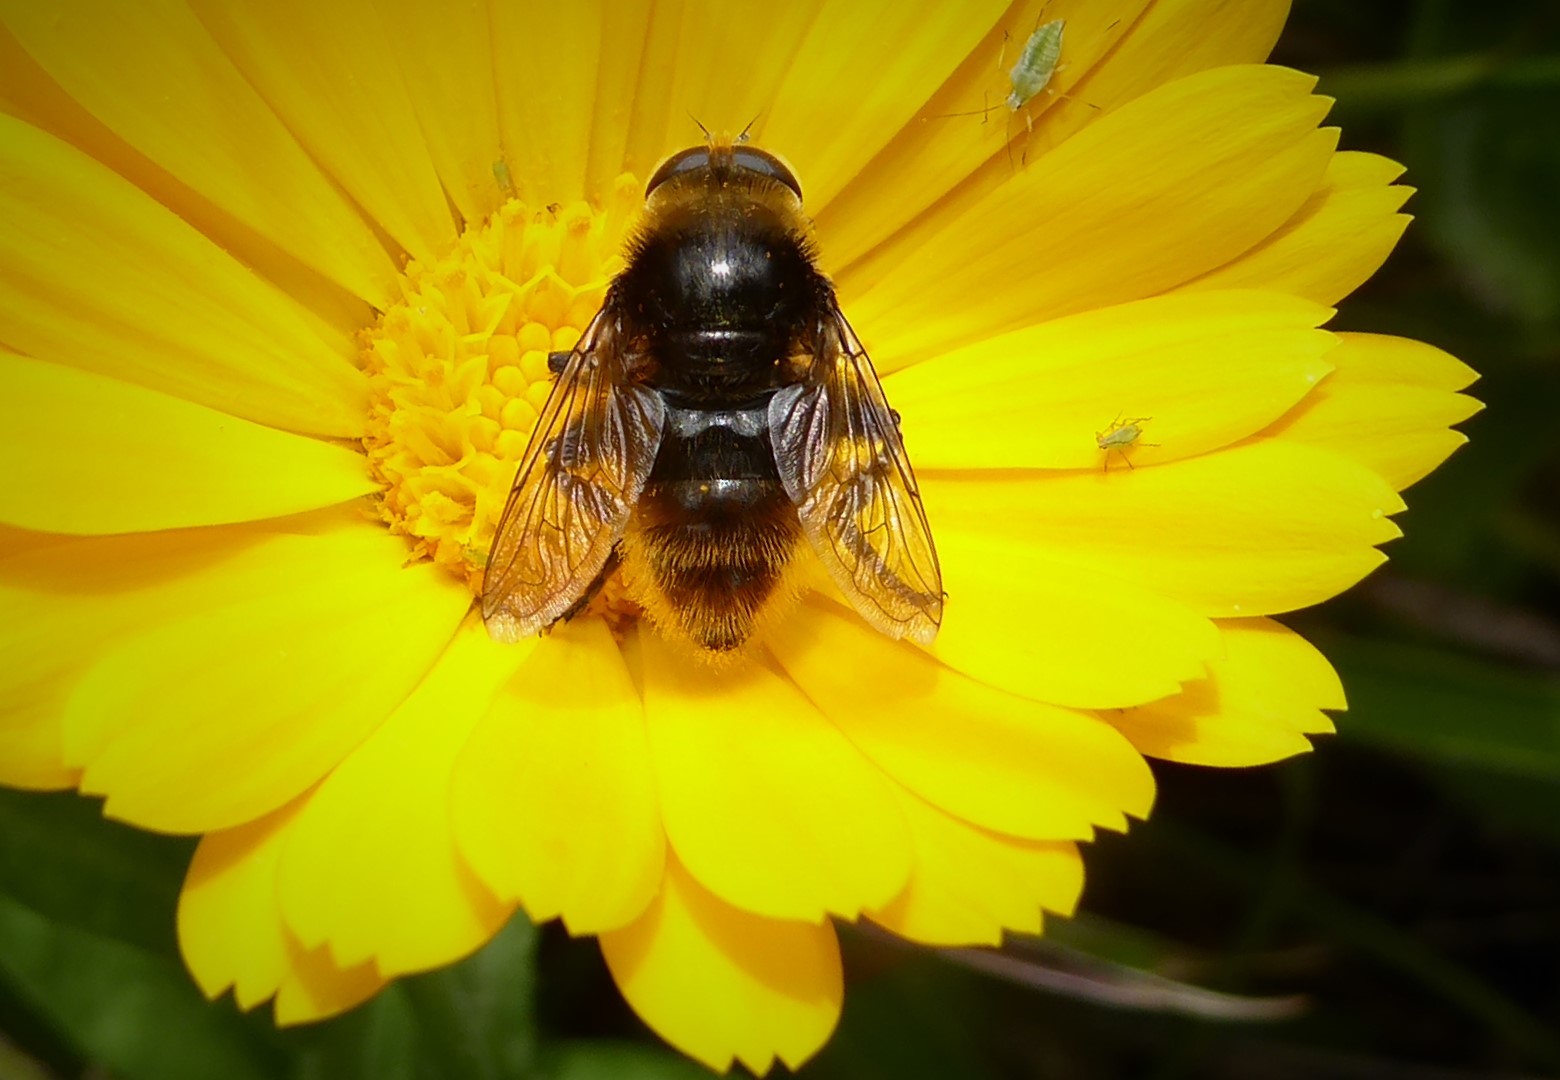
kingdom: Animalia
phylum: Arthropoda
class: Insecta
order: Diptera
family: Syrphidae
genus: Merodon
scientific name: Merodon equestris
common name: Greater bulb-fly
